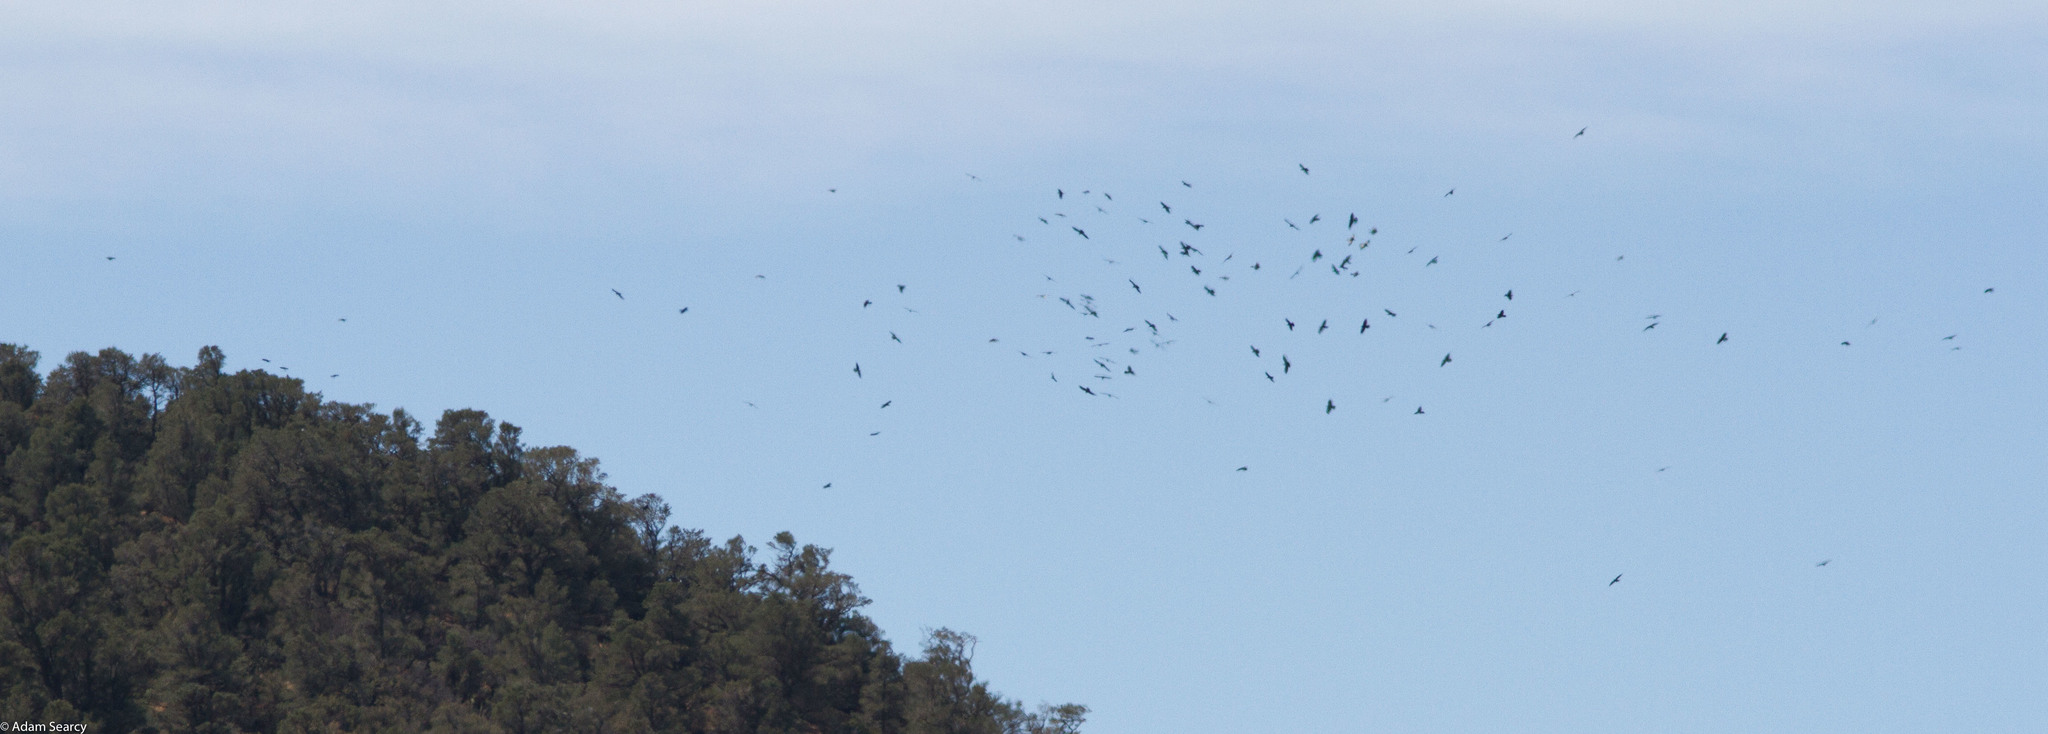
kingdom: Animalia
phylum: Chordata
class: Aves
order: Passeriformes
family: Corvidae
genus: Corvus
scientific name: Corvus corax
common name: Common raven
